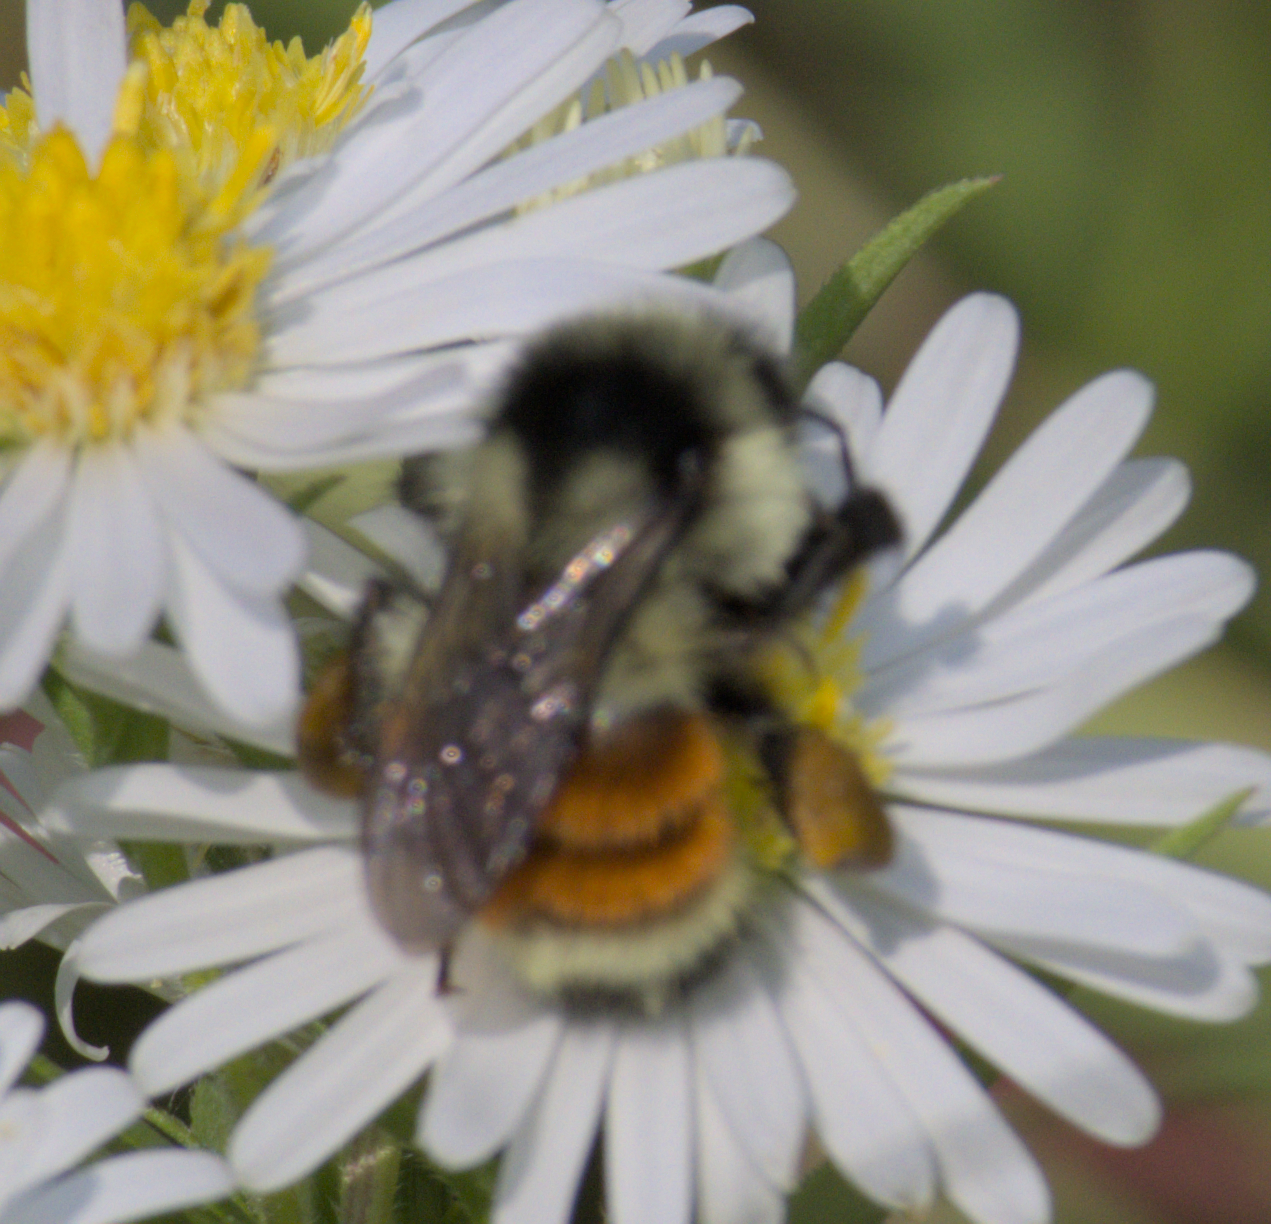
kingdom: Animalia
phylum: Arthropoda
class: Insecta
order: Hymenoptera
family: Apidae
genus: Bombus
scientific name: Bombus ternarius
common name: Tri-colored bumble bee
